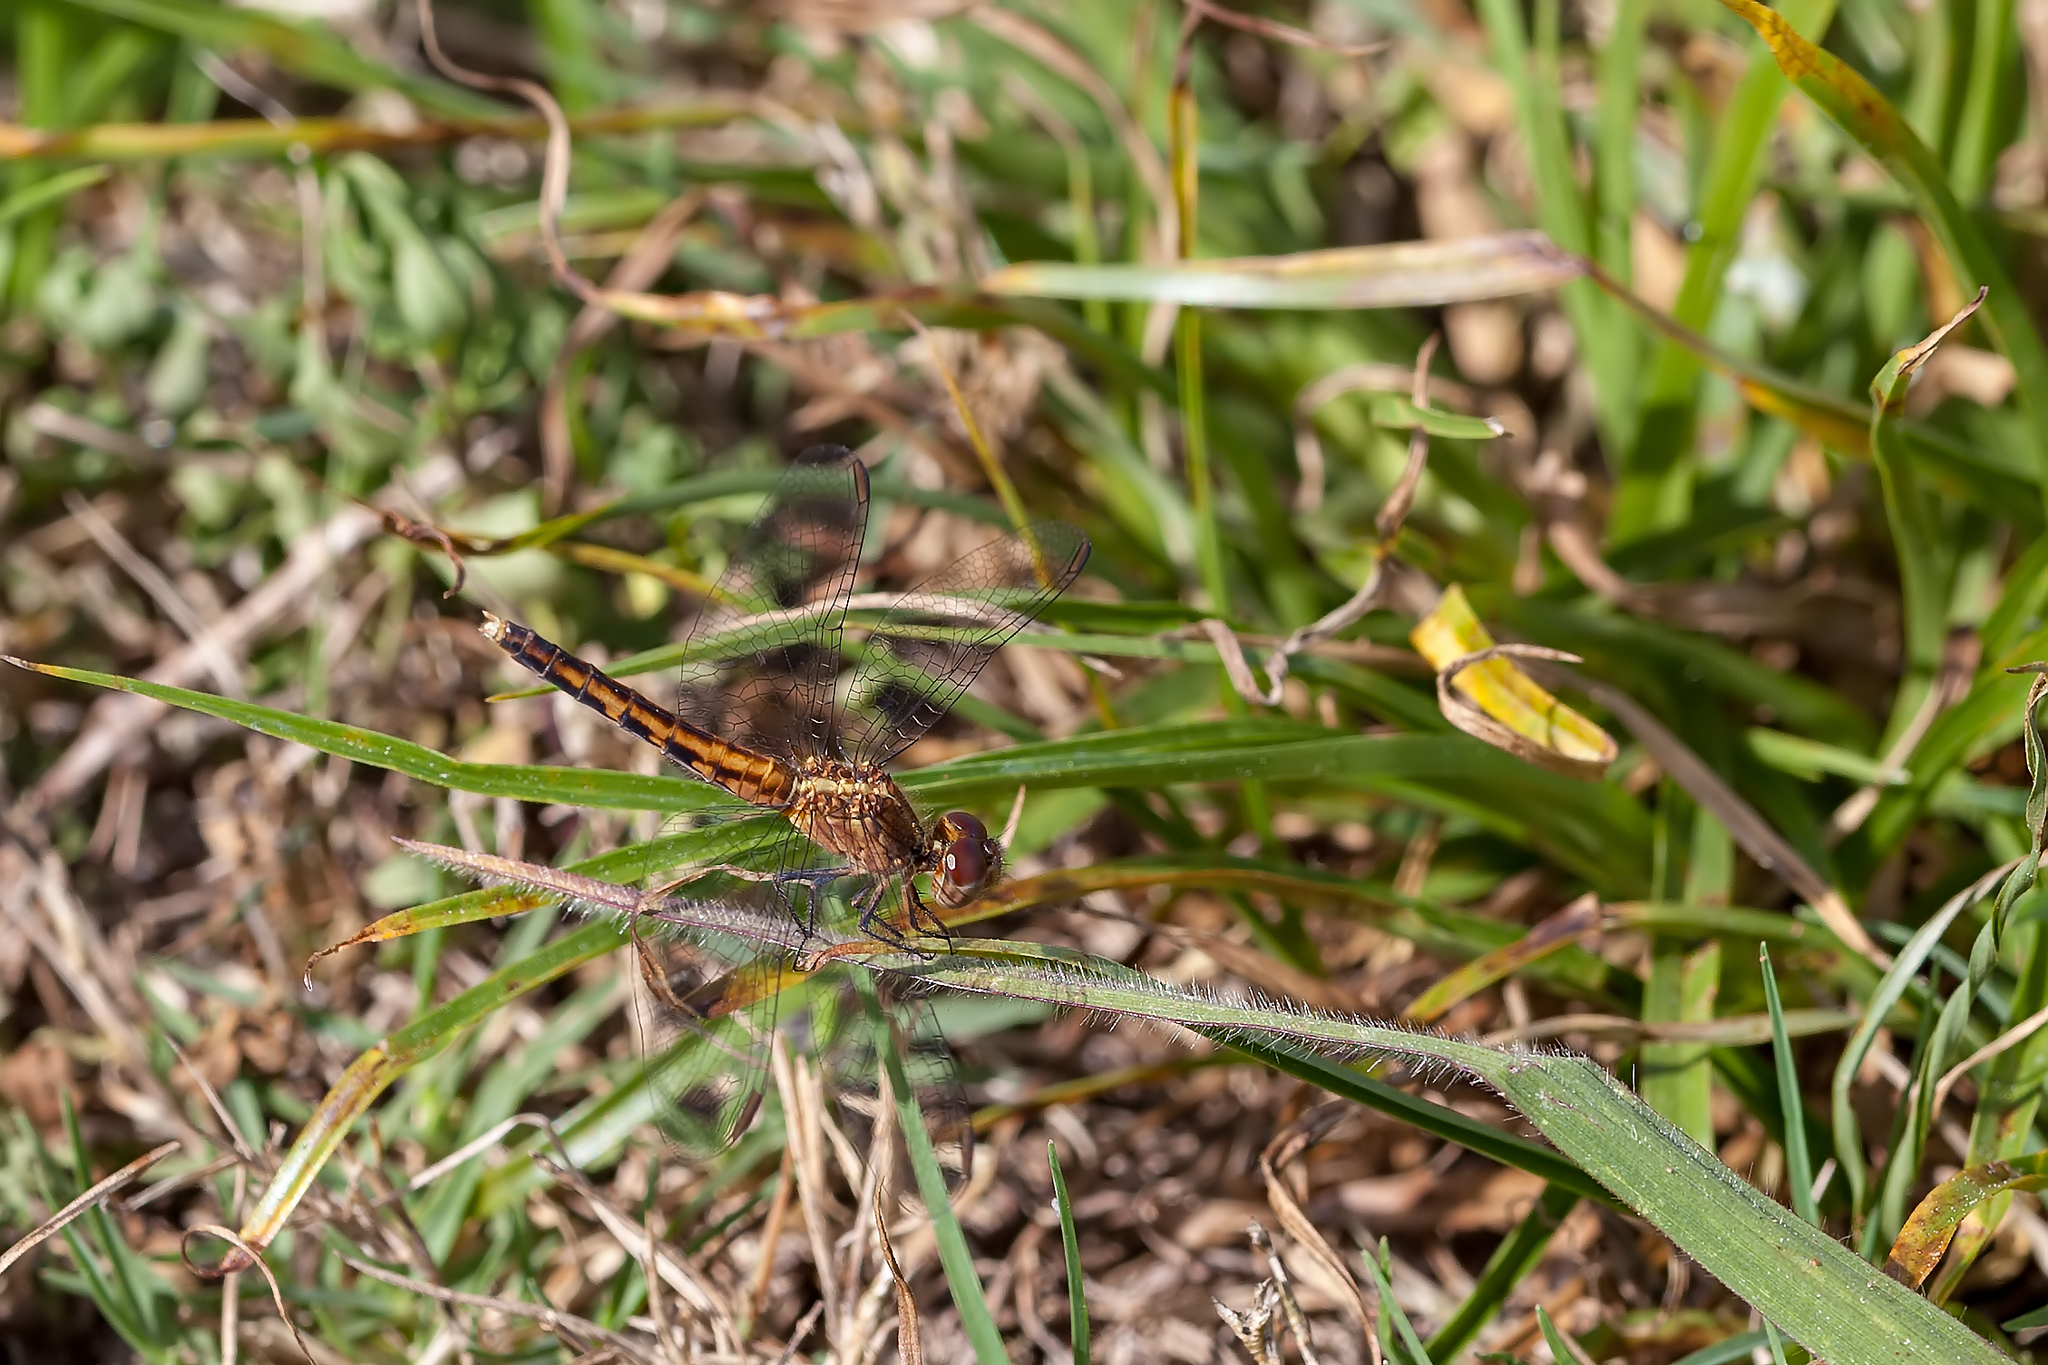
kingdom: Animalia
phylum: Arthropoda
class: Insecta
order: Odonata
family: Libellulidae
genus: Erythrodiplax
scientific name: Erythrodiplax minuscula
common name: Little blue dragonlet
